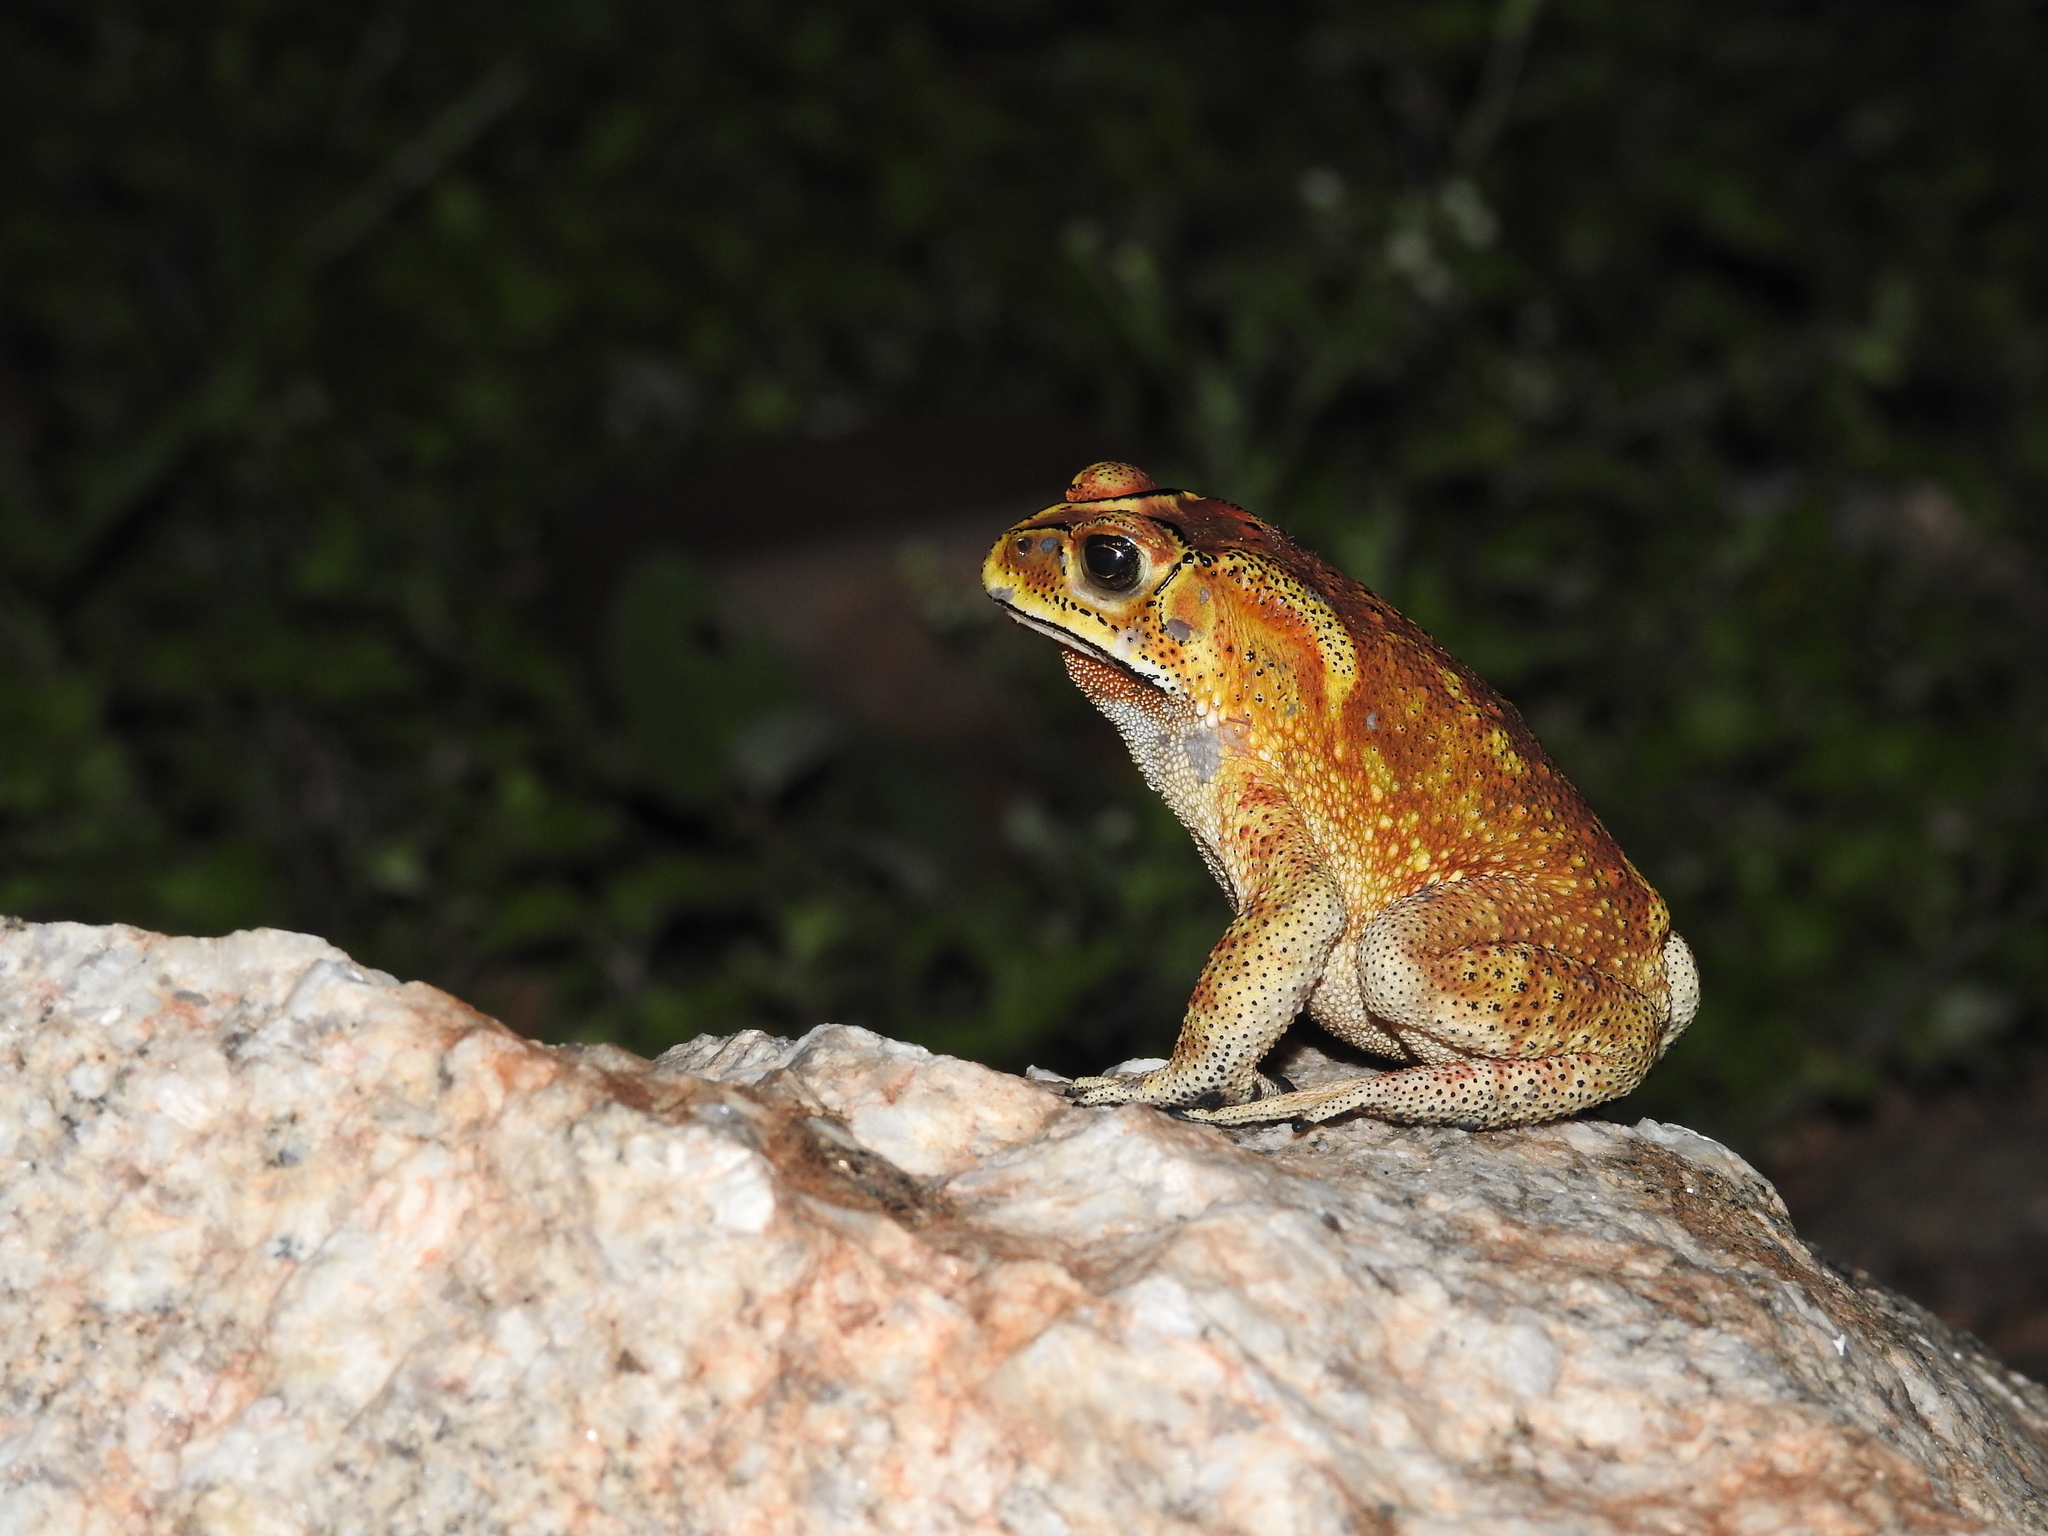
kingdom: Animalia
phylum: Chordata
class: Amphibia
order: Anura
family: Bufonidae
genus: Duttaphrynus
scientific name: Duttaphrynus melanostictus
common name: Common sunda toad
